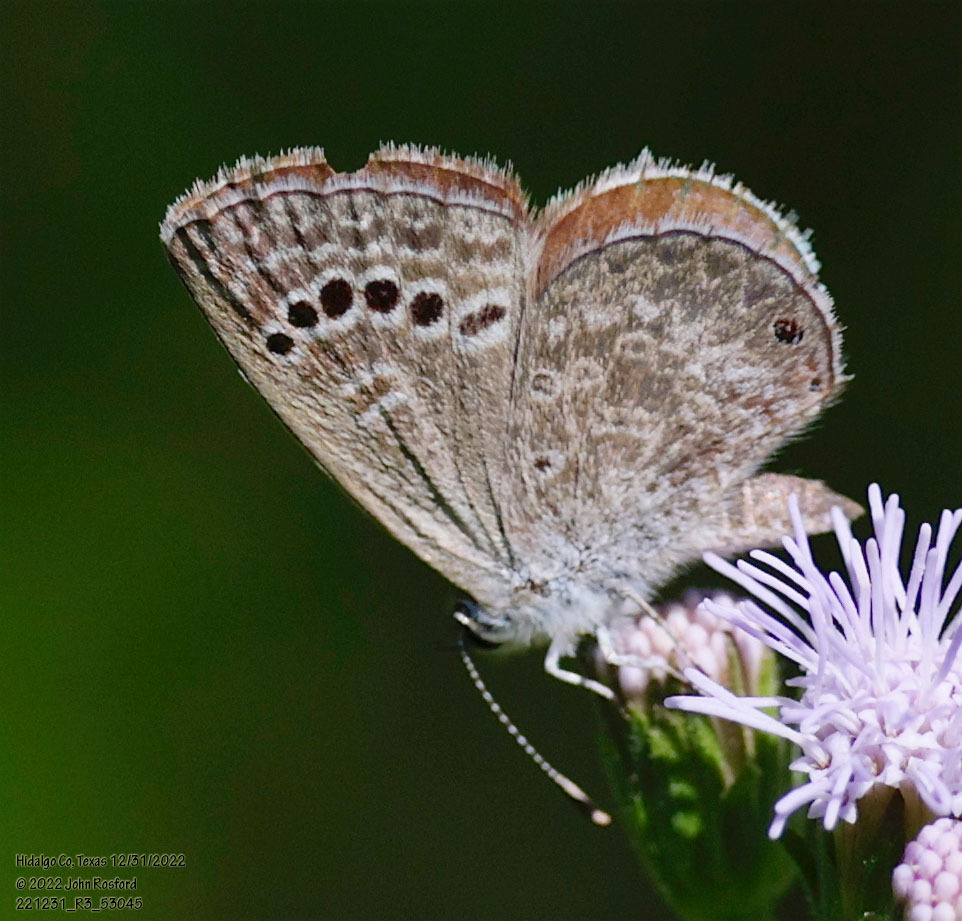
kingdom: Animalia
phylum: Arthropoda
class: Insecta
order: Lepidoptera
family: Lycaenidae
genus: Echinargus
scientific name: Echinargus isola
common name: Reakirt's blue
